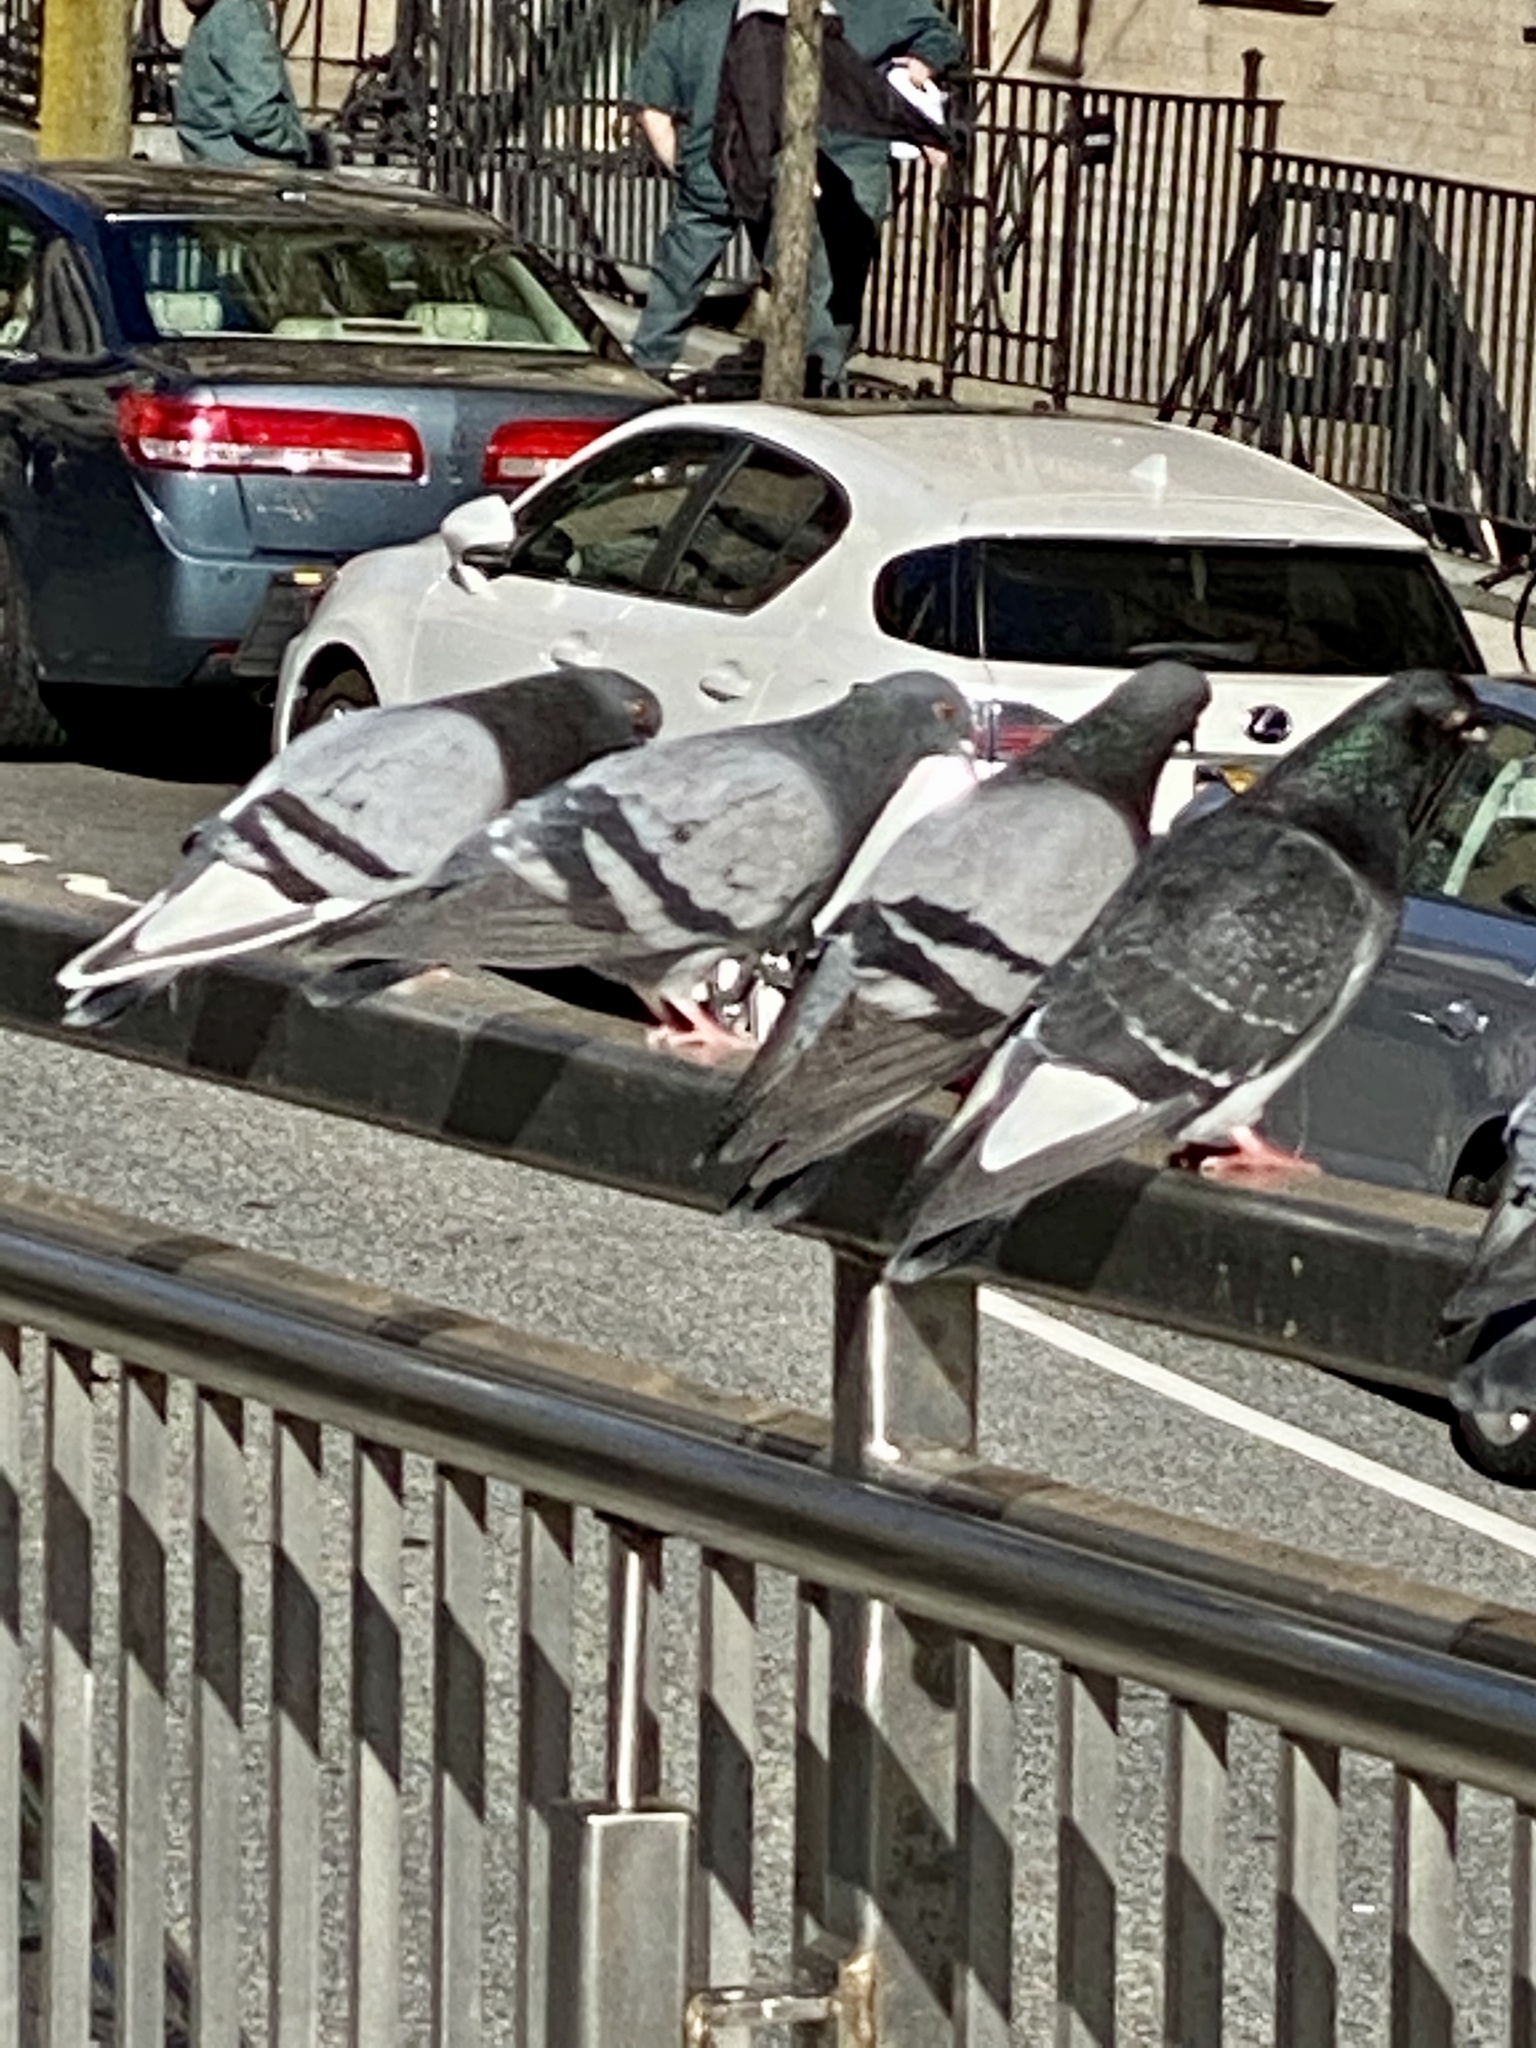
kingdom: Animalia
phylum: Chordata
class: Aves
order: Columbiformes
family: Columbidae
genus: Columba
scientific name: Columba livia
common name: Rock pigeon
